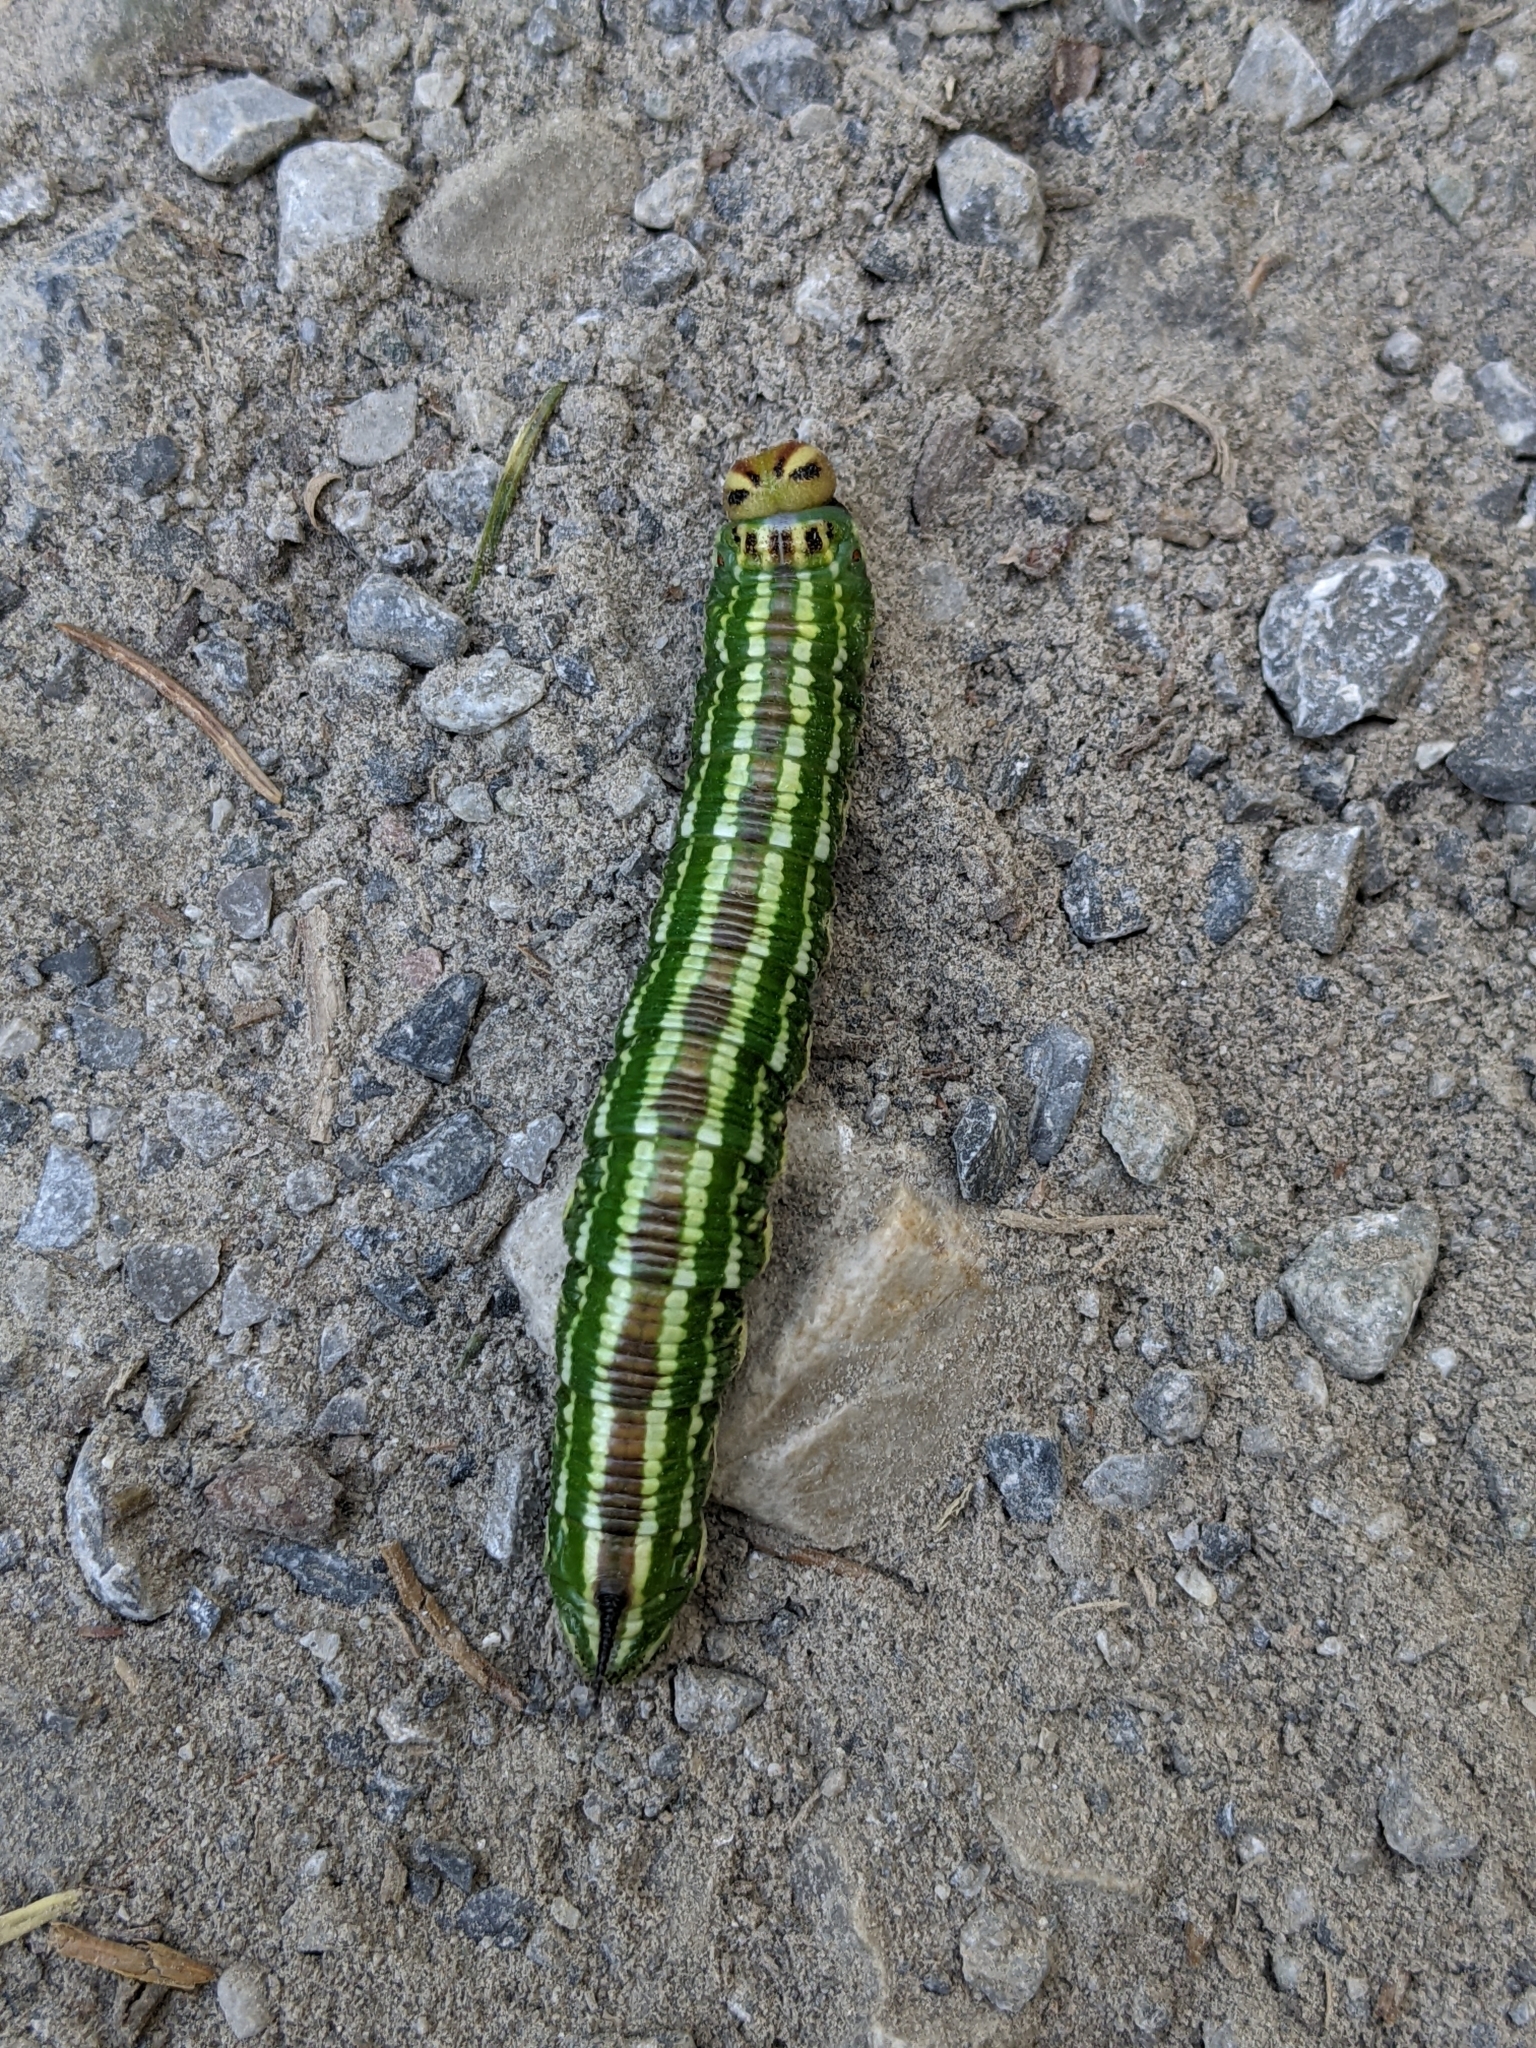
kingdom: Animalia
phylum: Arthropoda
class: Insecta
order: Lepidoptera
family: Sphingidae
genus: Sphinx
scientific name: Sphinx pinastri
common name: Pine hawk-moth
